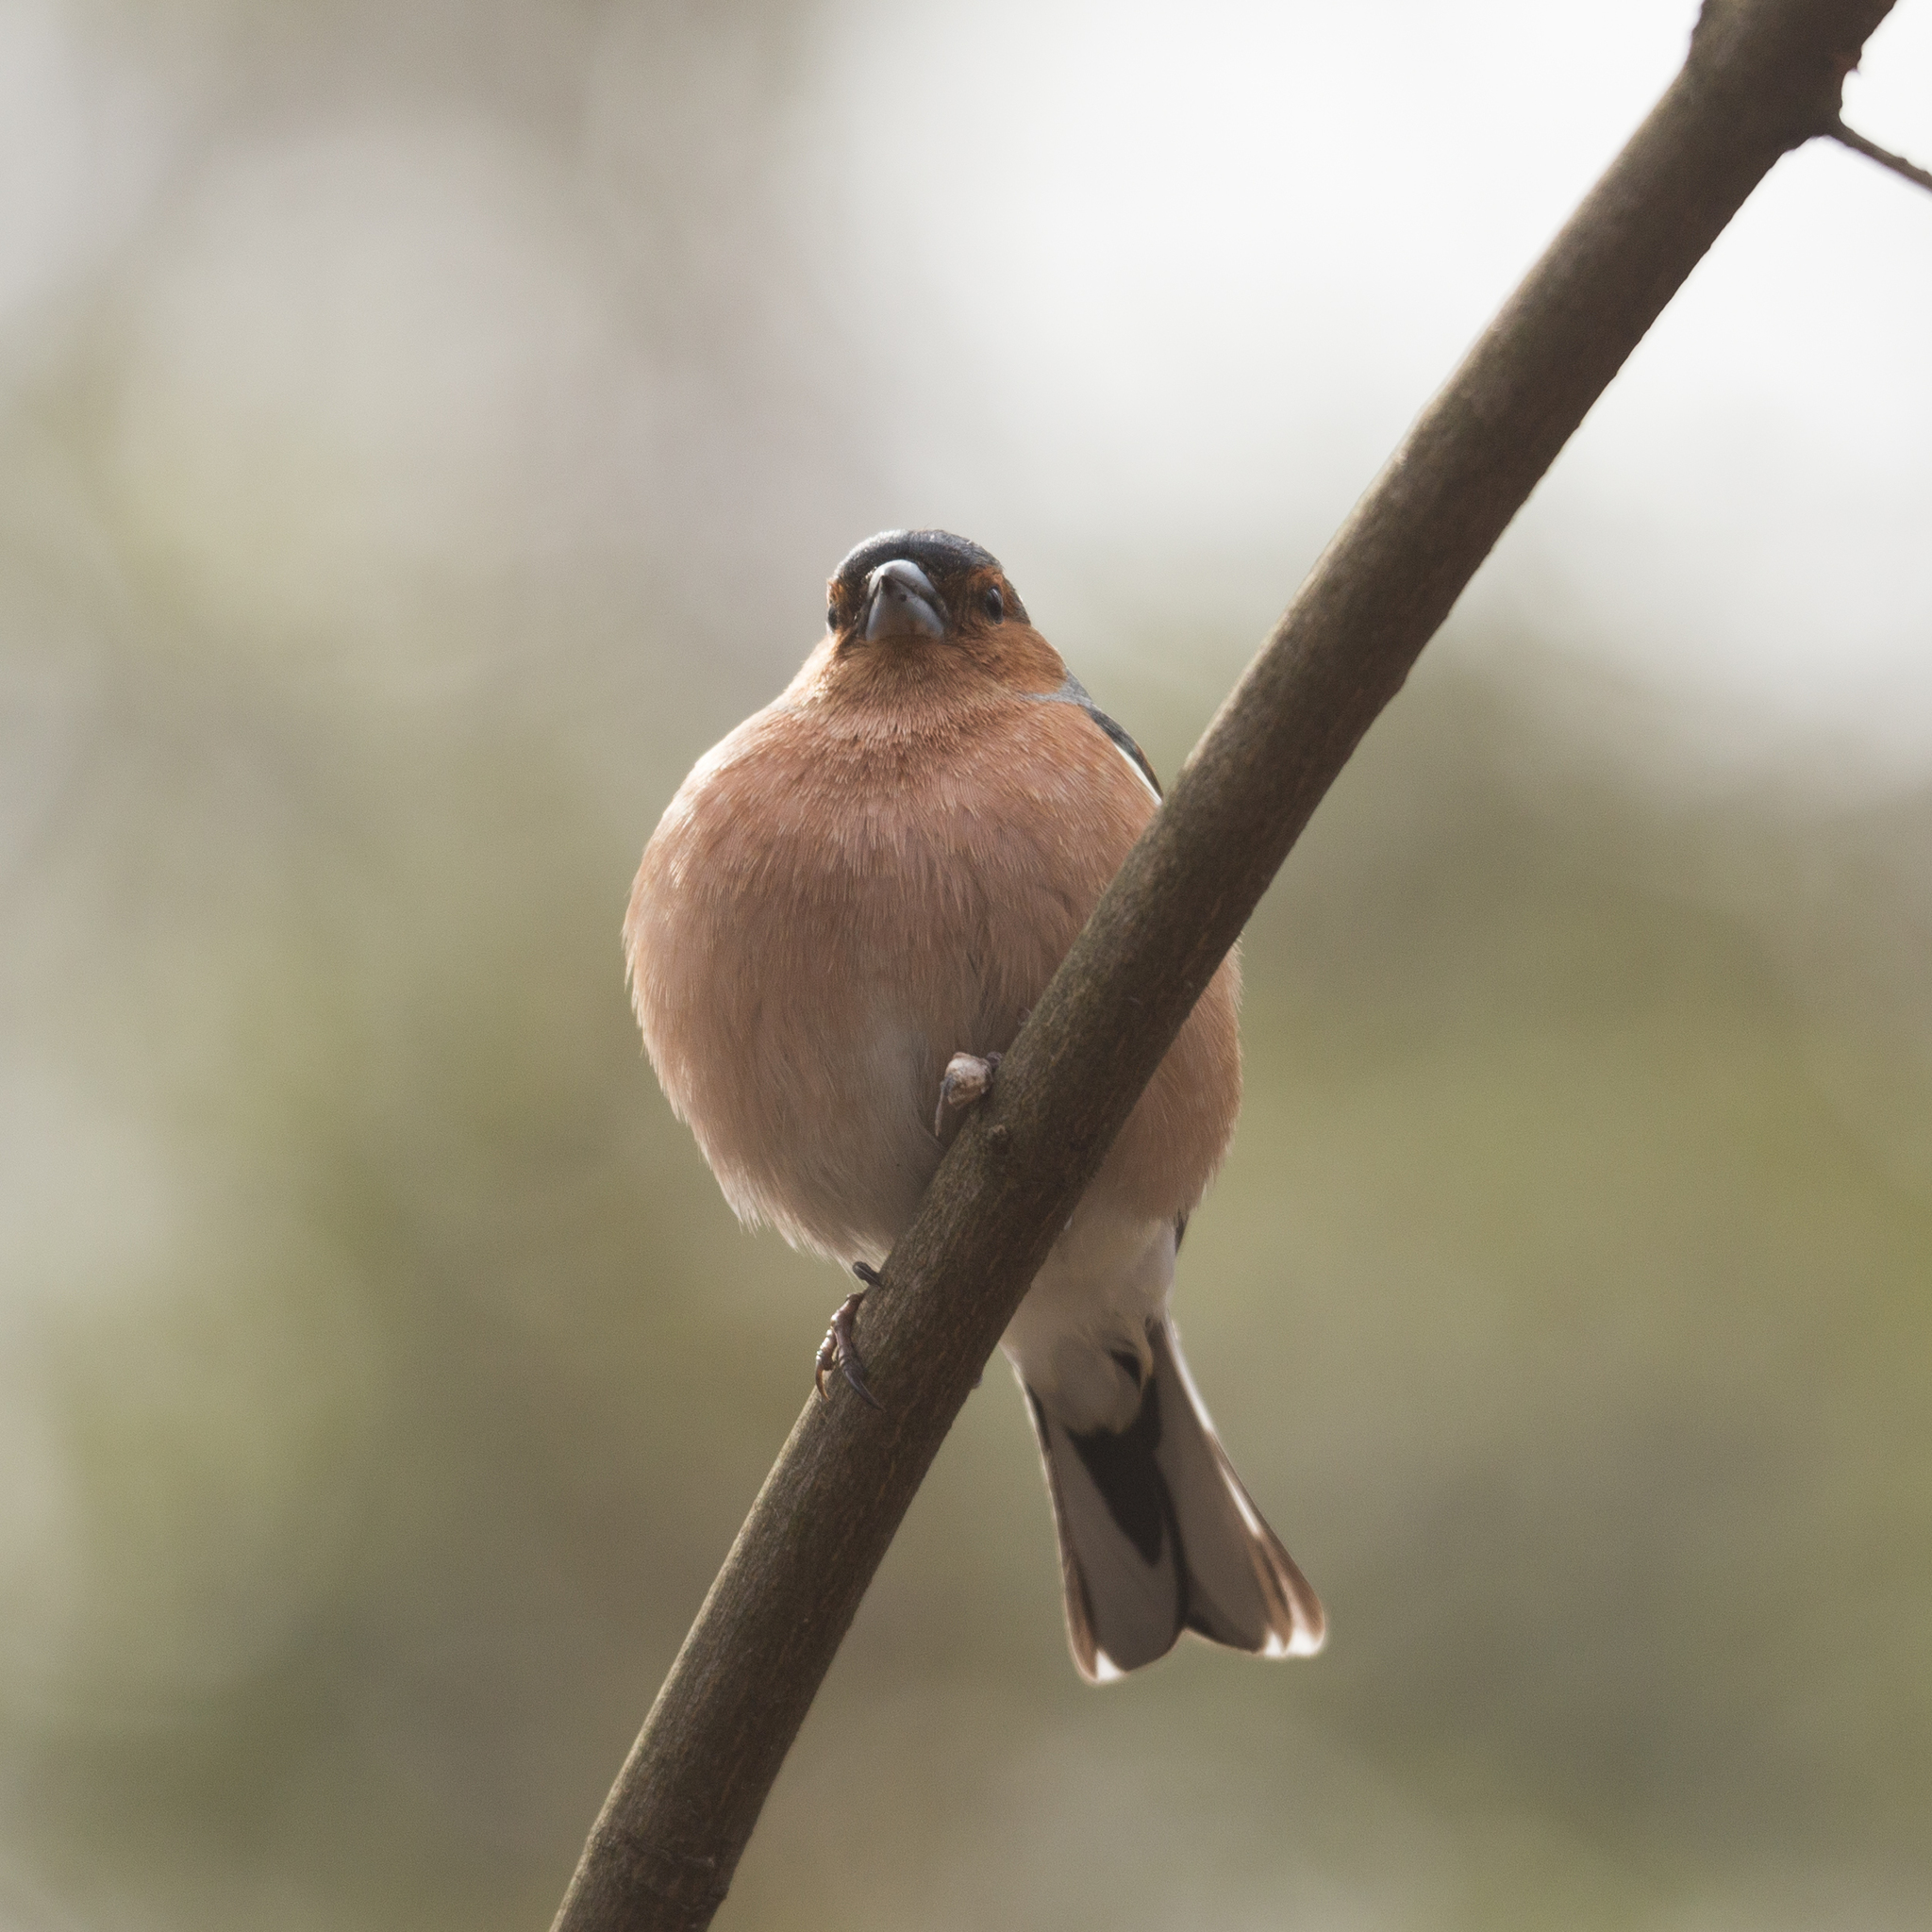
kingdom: Animalia
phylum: Chordata
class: Aves
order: Passeriformes
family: Fringillidae
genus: Fringilla
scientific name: Fringilla coelebs
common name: Common chaffinch
